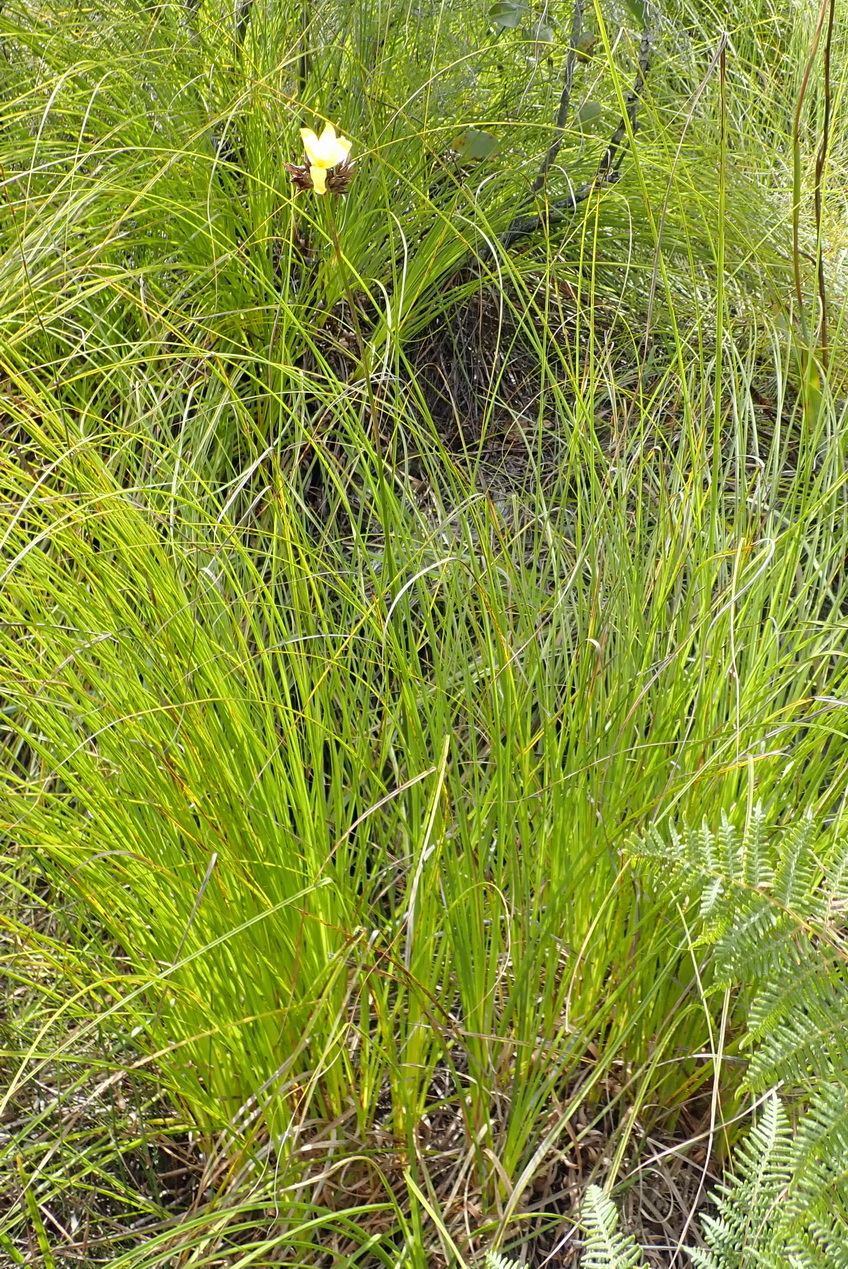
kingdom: Plantae
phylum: Tracheophyta
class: Liliopsida
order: Asparagales
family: Iridaceae
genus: Bobartia
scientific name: Bobartia macrospatha
